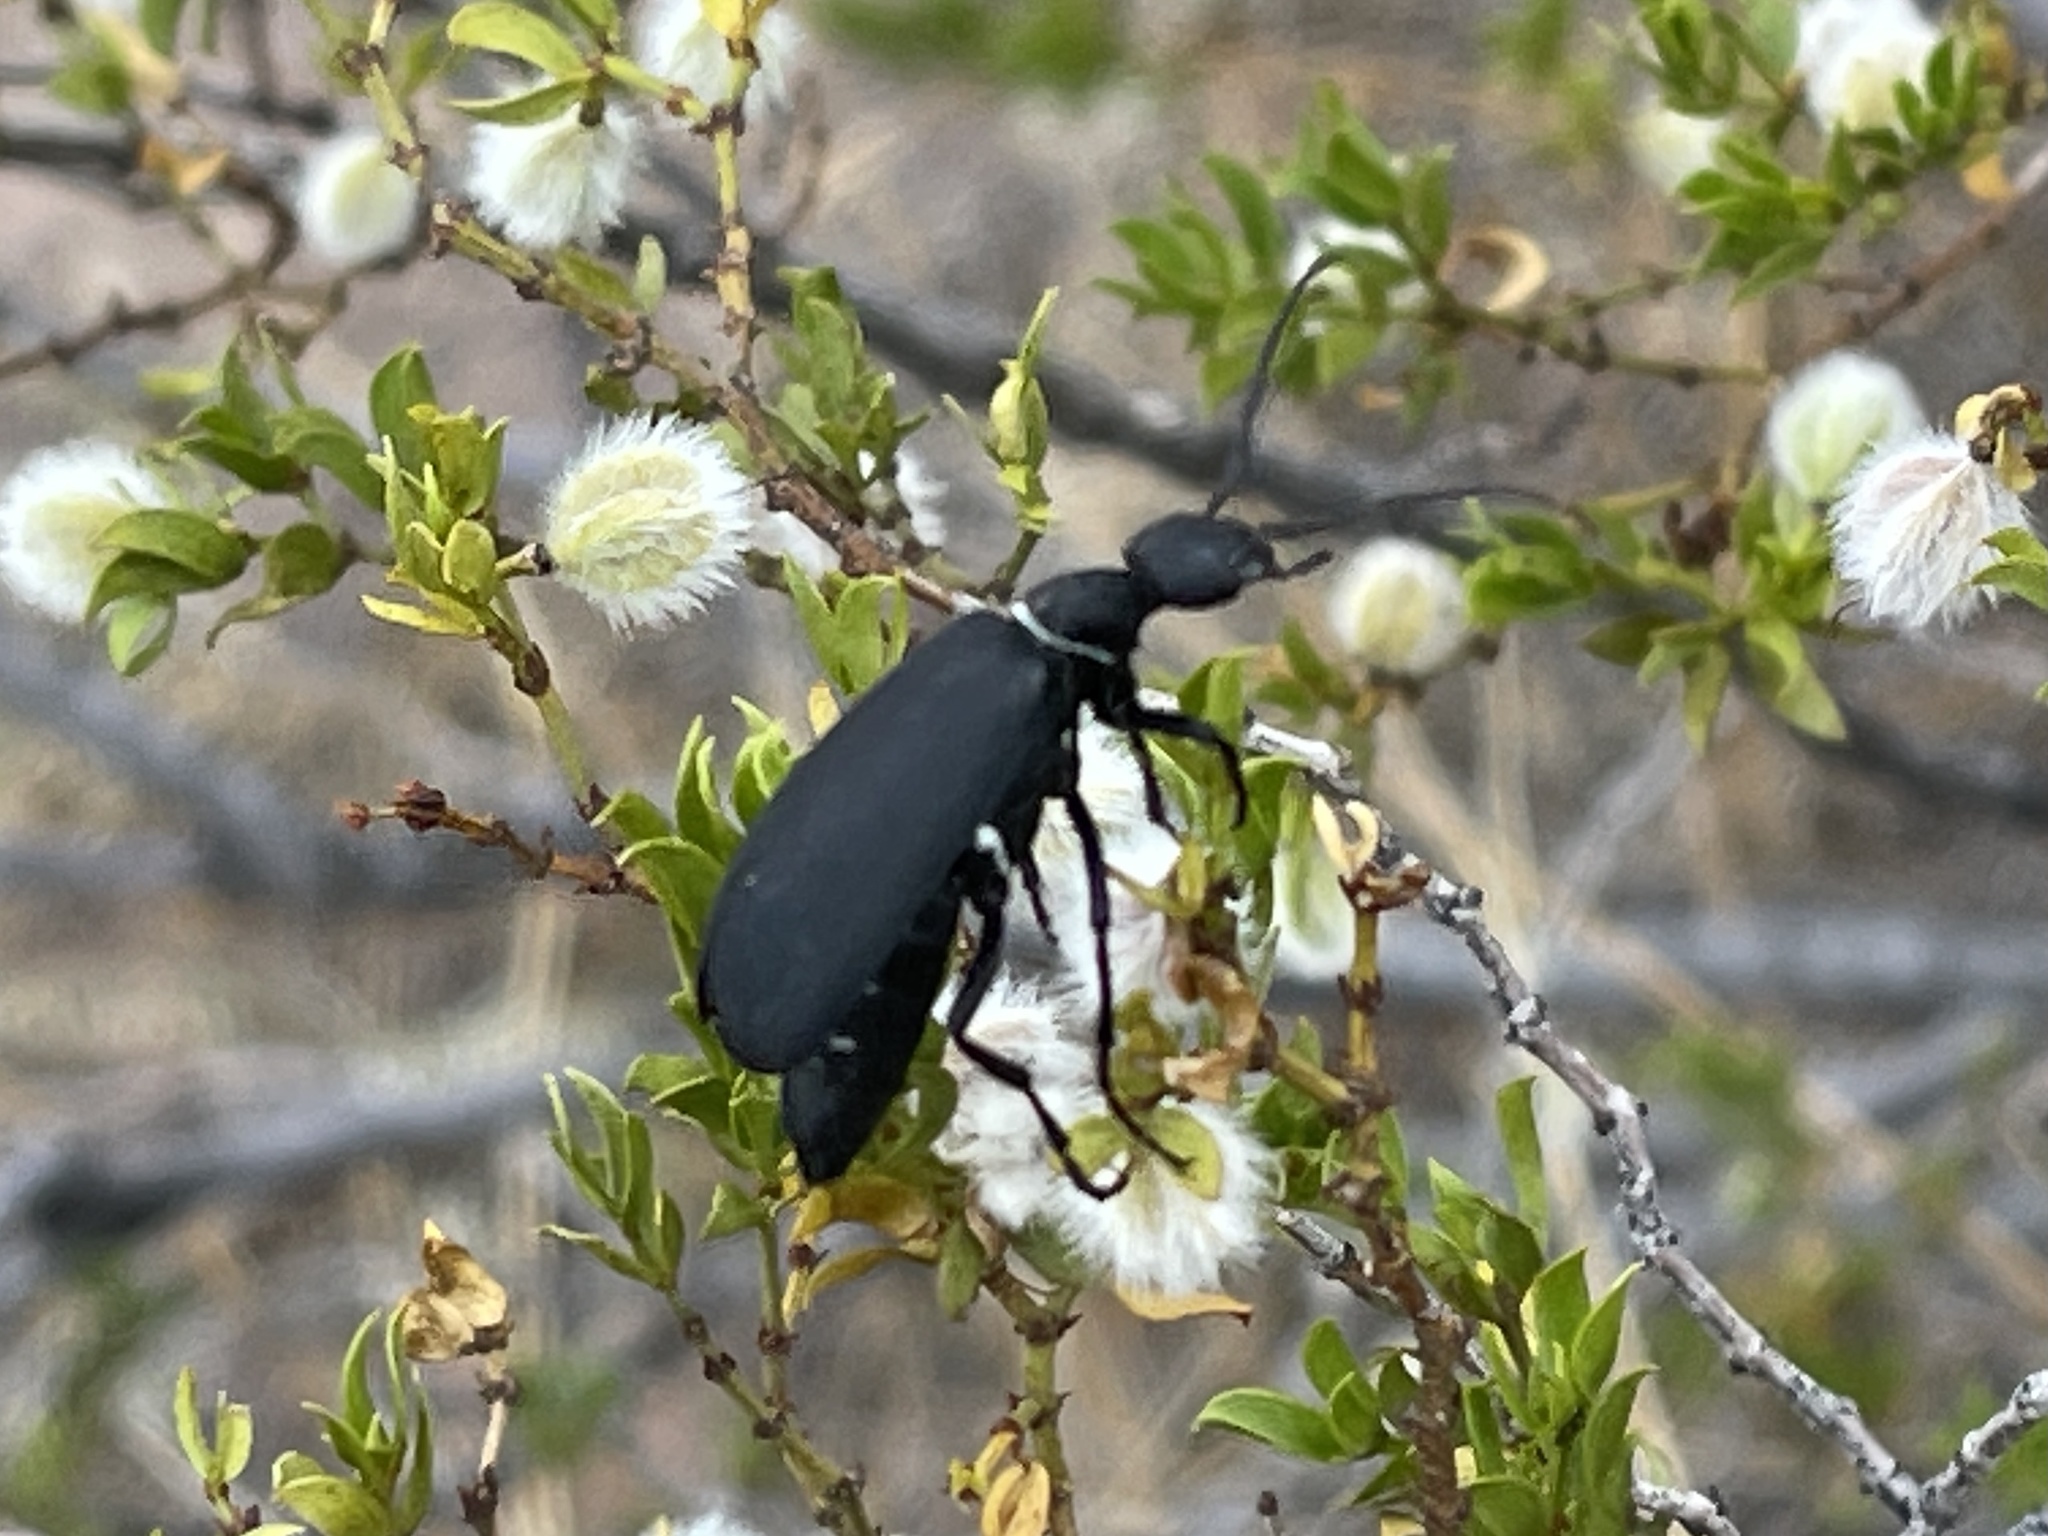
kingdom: Animalia
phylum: Arthropoda
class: Insecta
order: Coleoptera
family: Meloidae
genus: Epicauta
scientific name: Epicauta segmenta
